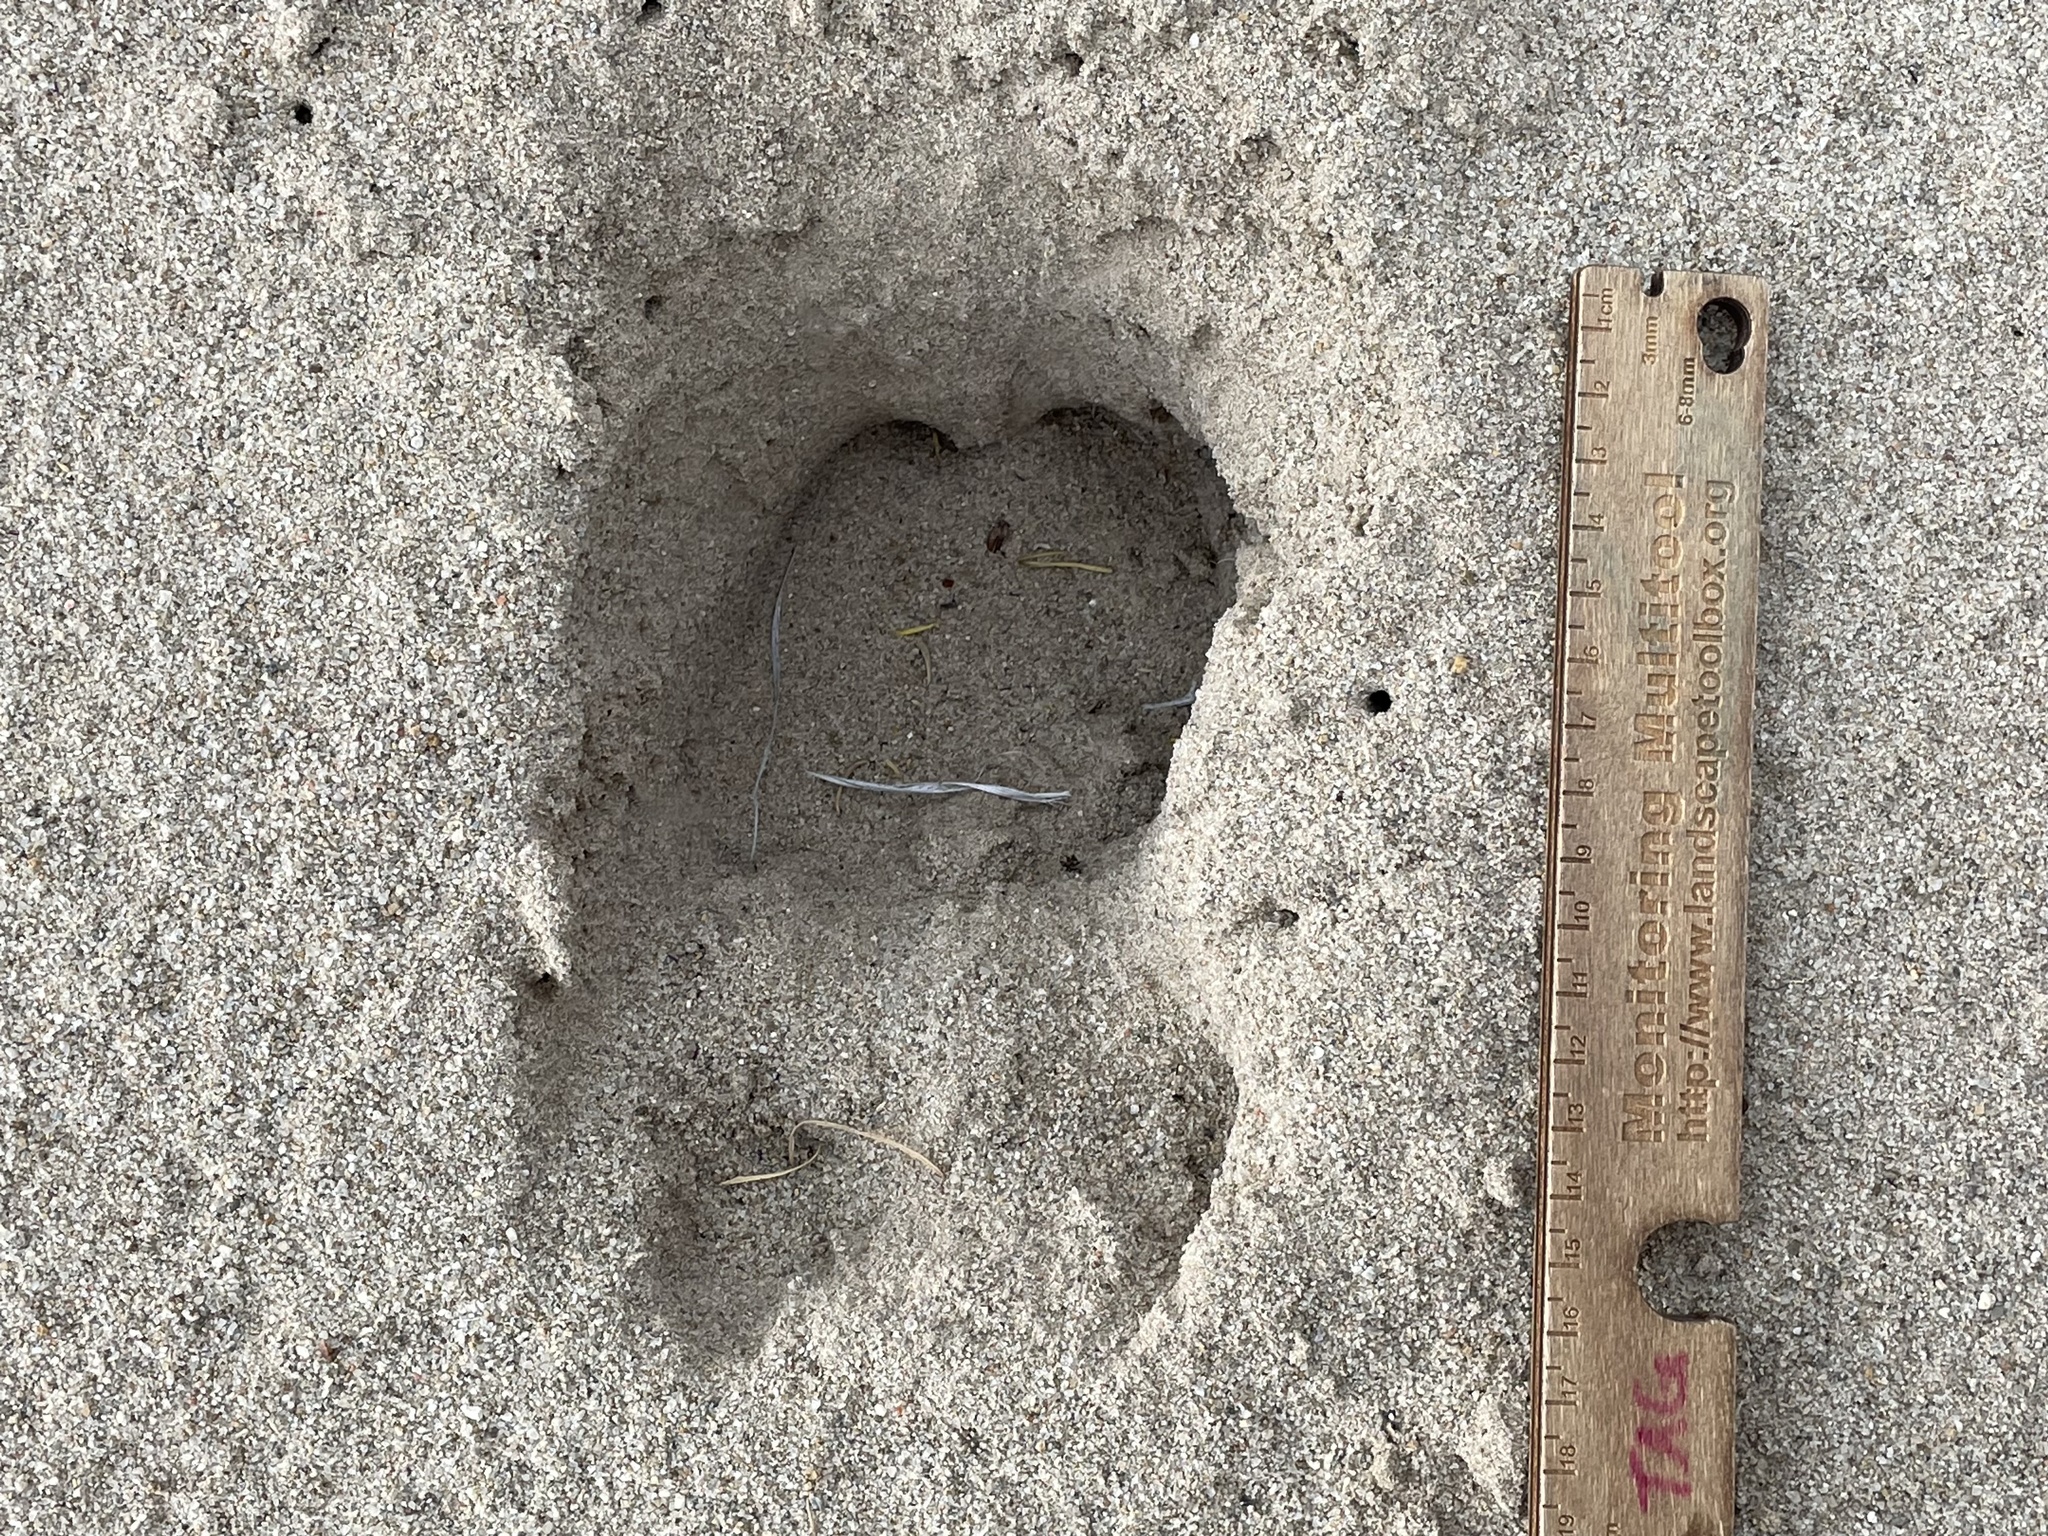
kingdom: Animalia
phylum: Chordata
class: Mammalia
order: Artiodactyla
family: Cervidae
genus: Cervus
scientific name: Cervus elaphus
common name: Red deer
